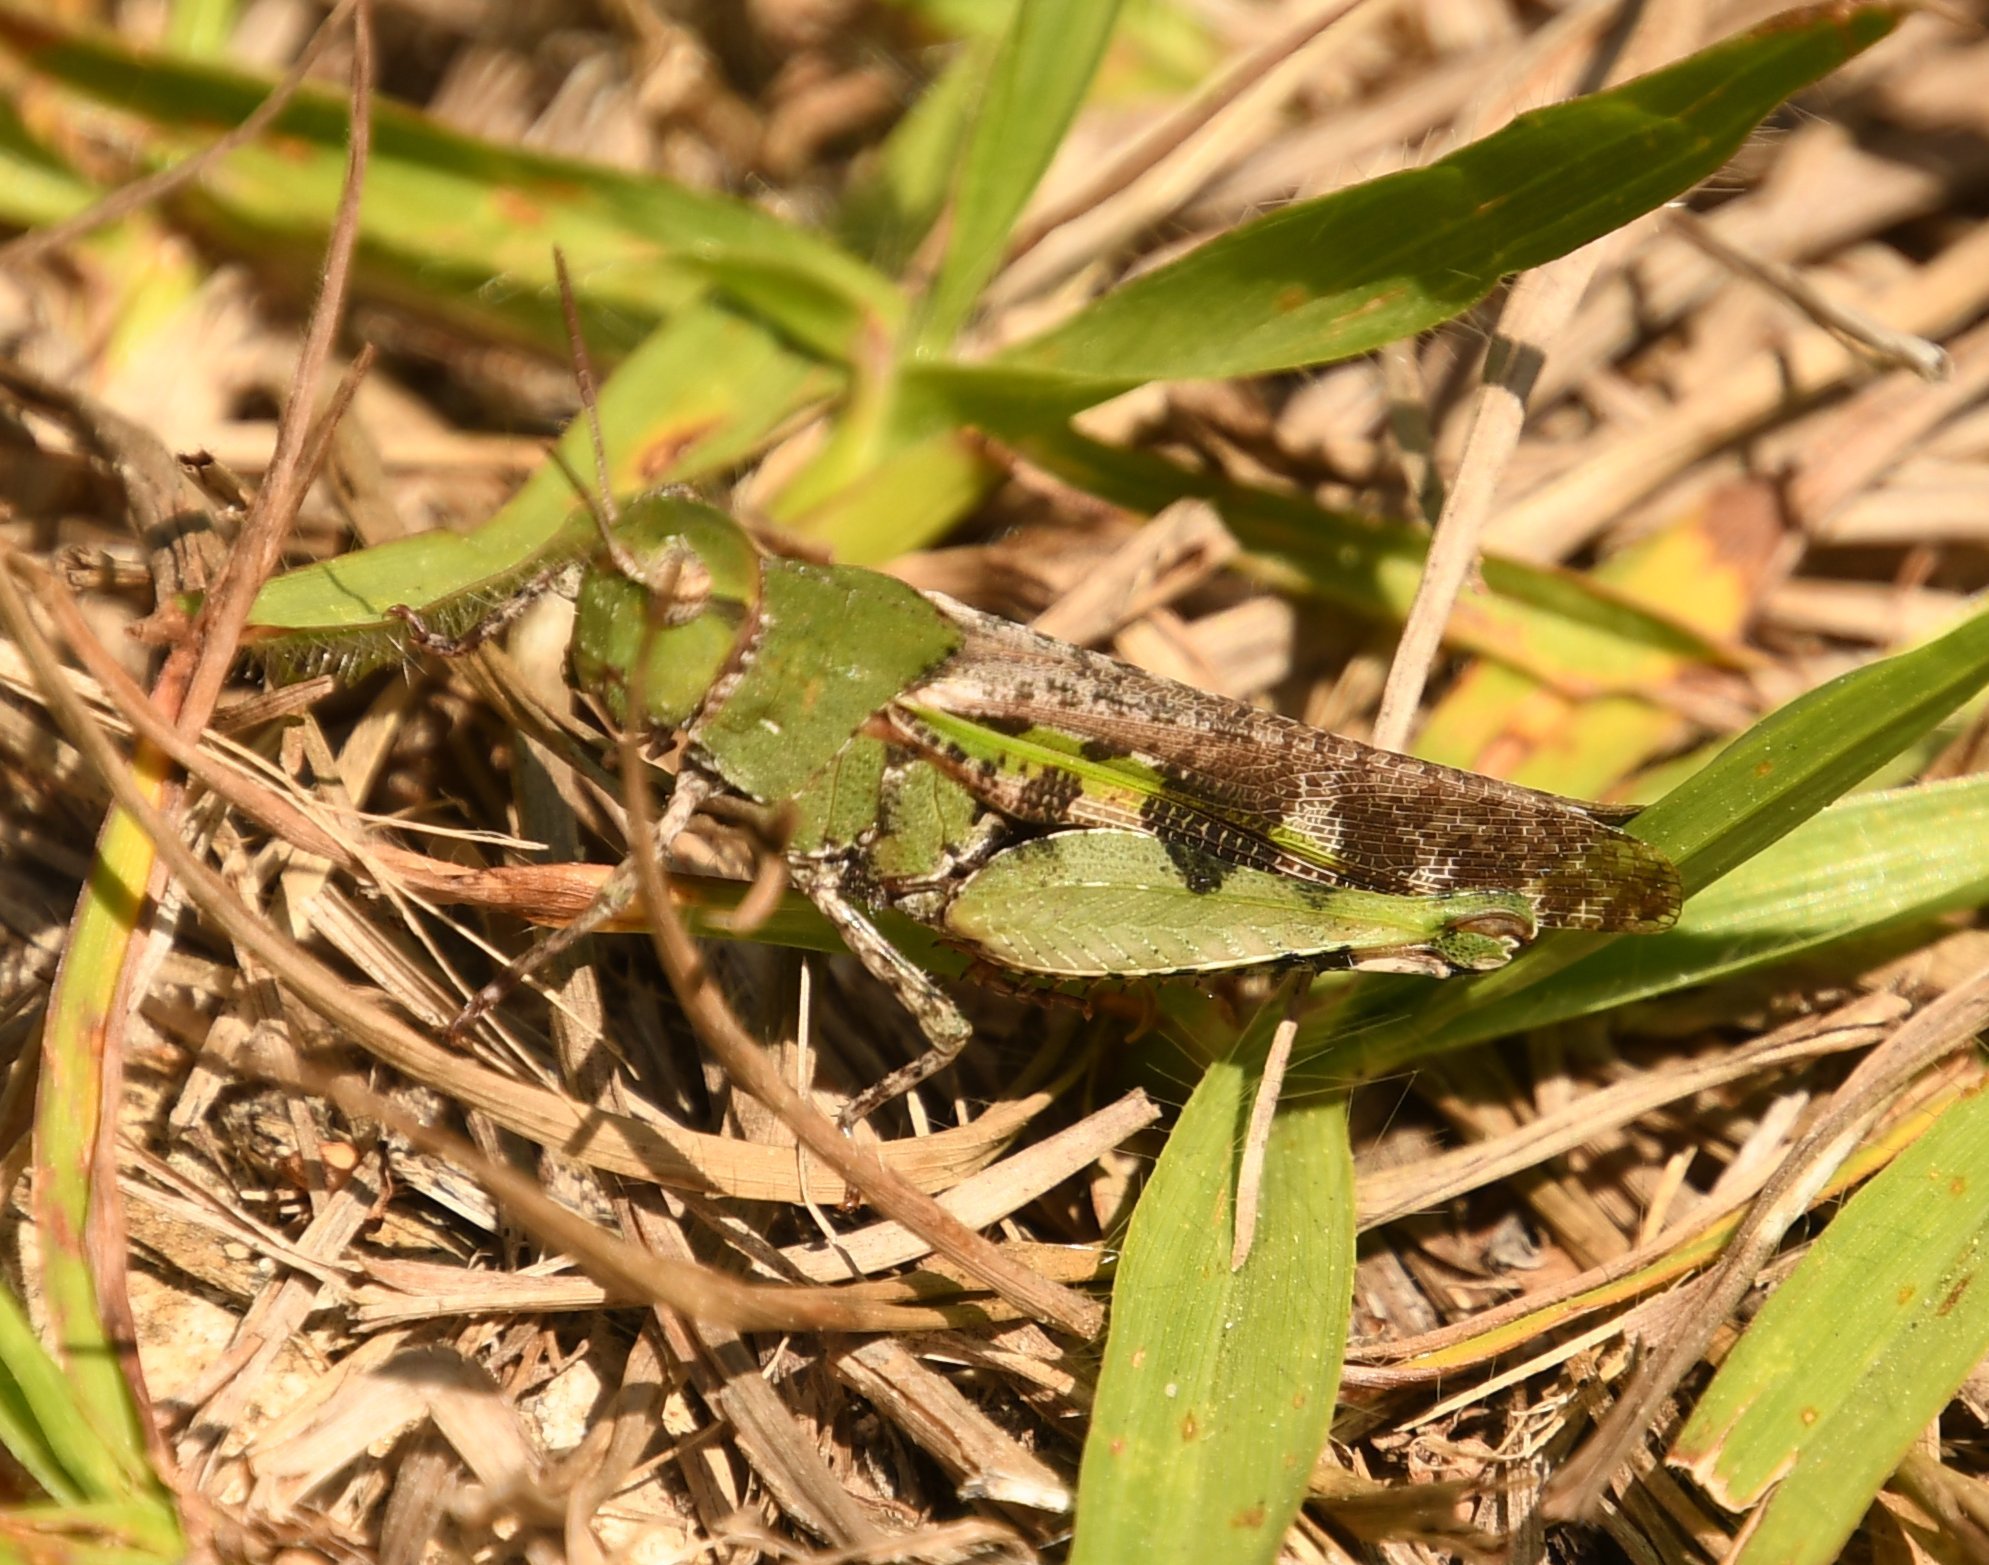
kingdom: Animalia
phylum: Arthropoda
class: Insecta
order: Orthoptera
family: Acrididae
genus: Chortophaga
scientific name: Chortophaga australior
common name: Southern green-striped grasshopper
